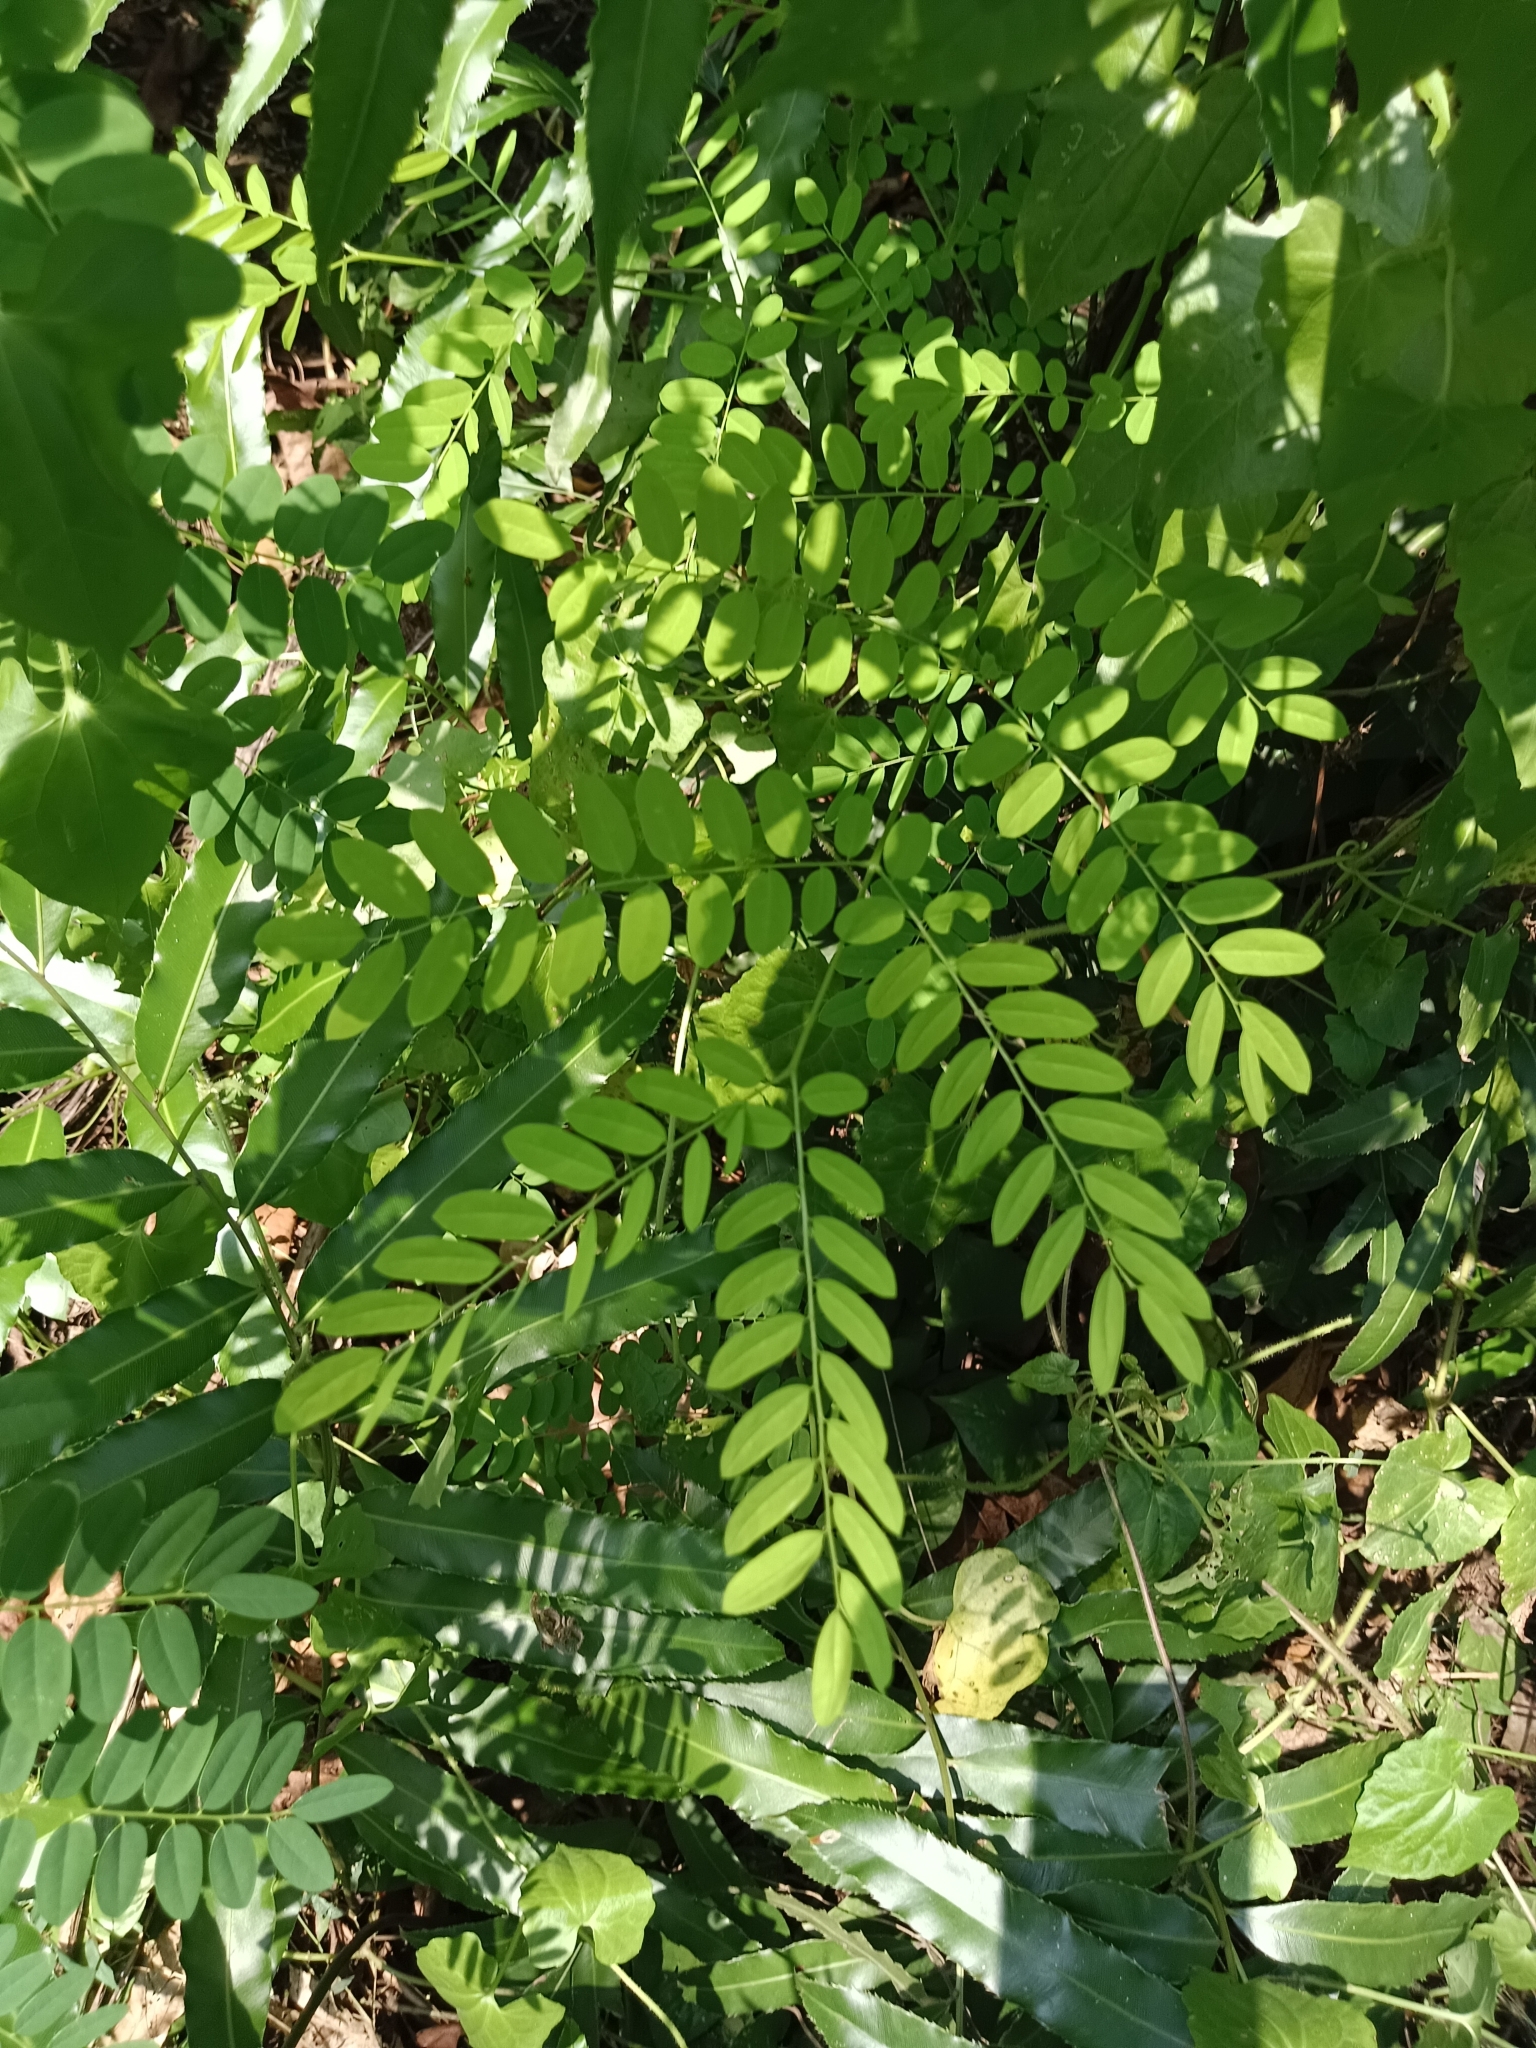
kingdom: Plantae
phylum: Tracheophyta
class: Magnoliopsida
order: Fabales
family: Fabaceae
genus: Adenanthera
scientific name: Adenanthera pavonina
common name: Red beadtree
